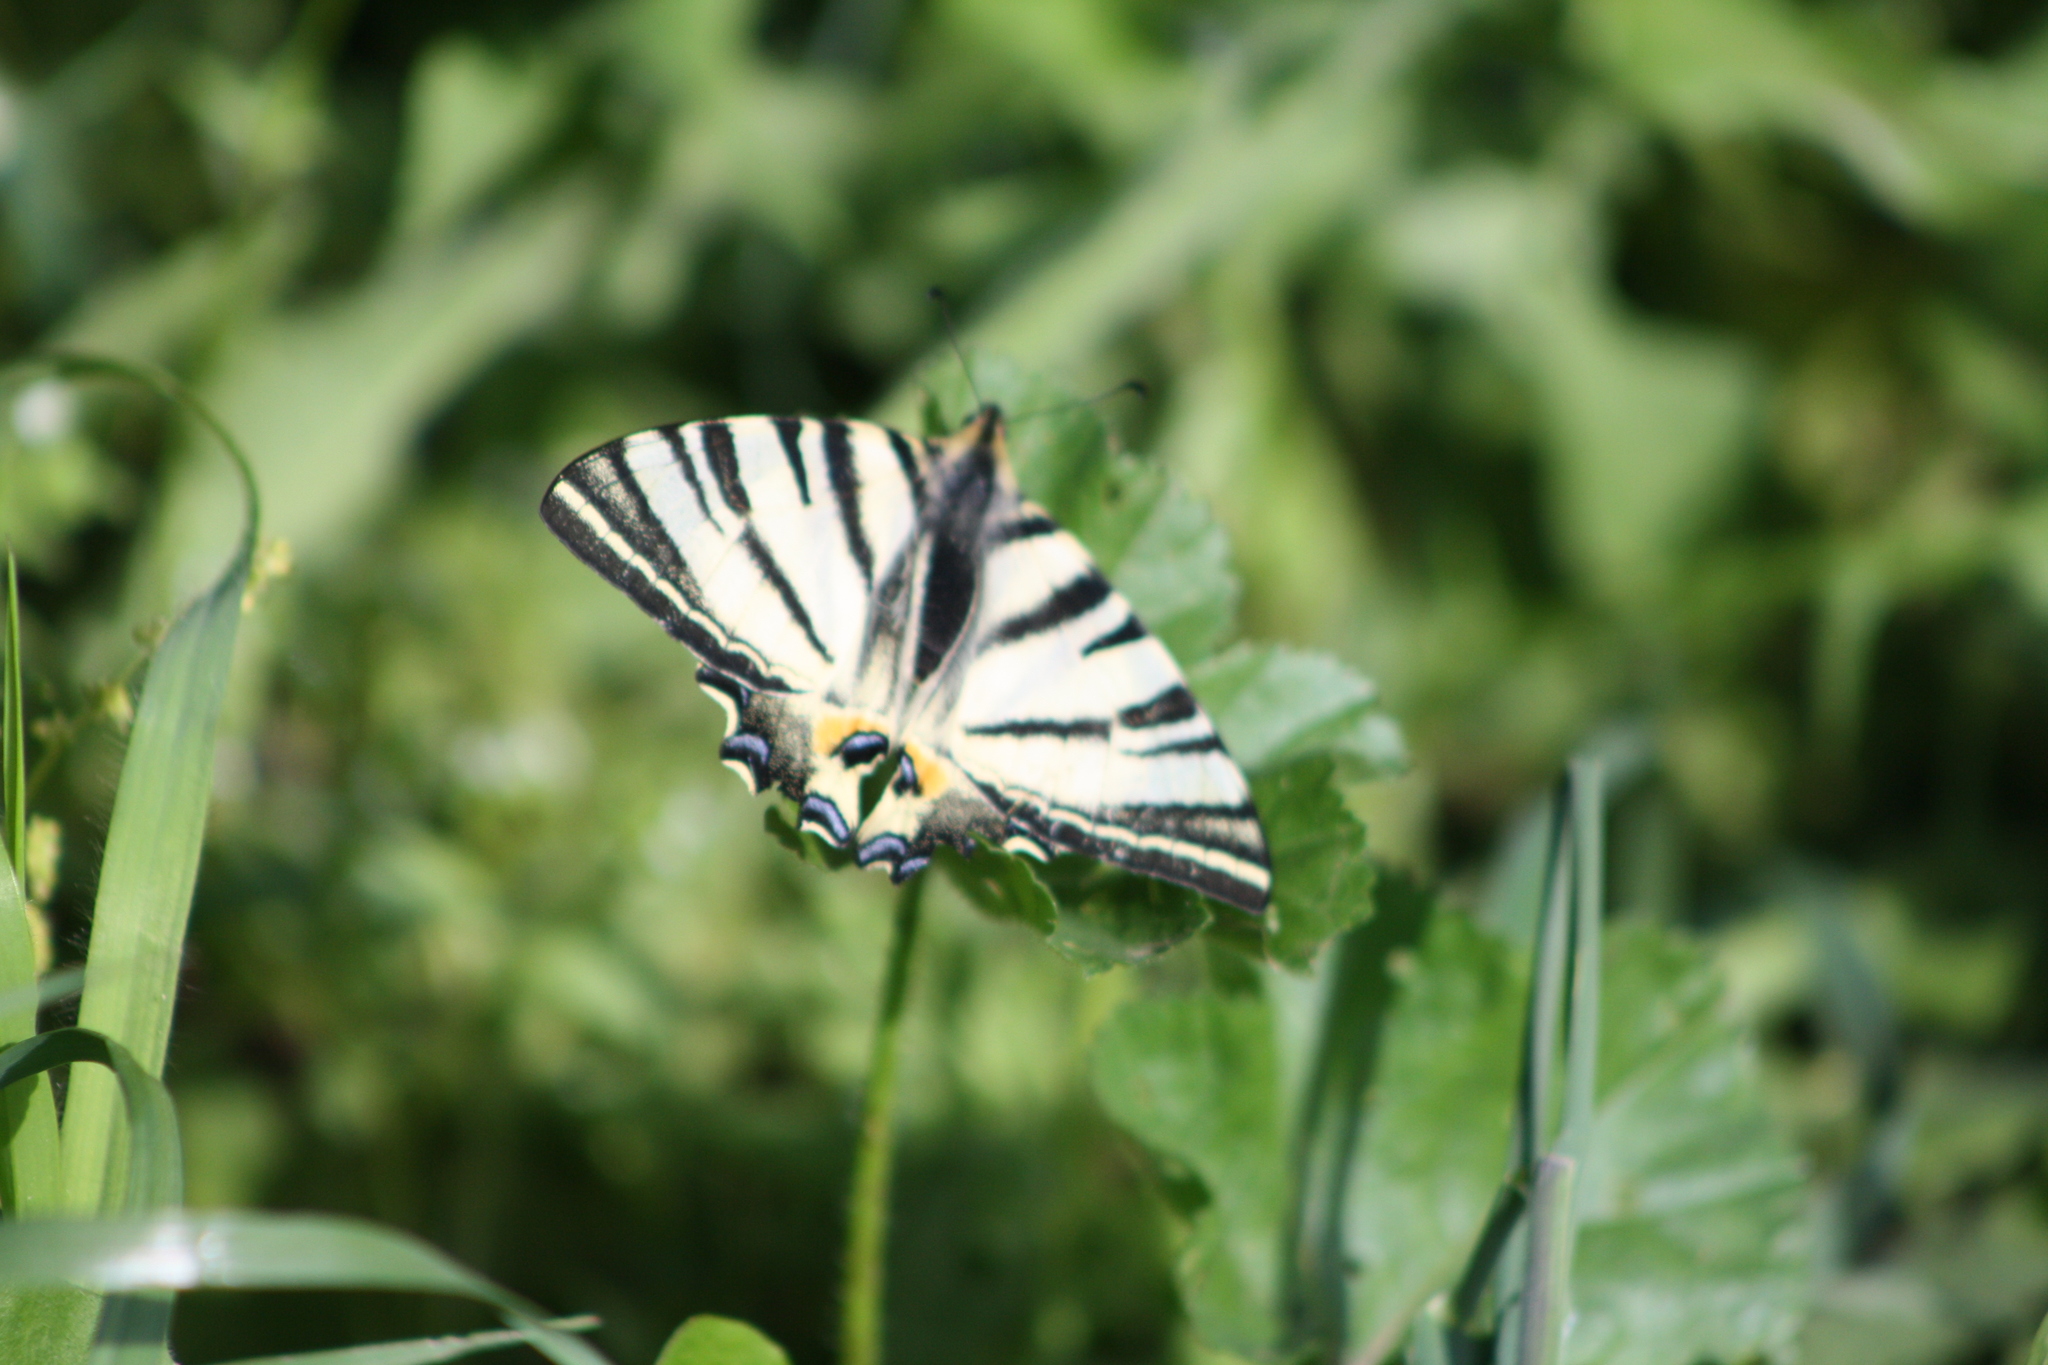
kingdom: Animalia
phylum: Arthropoda
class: Insecta
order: Lepidoptera
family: Papilionidae
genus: Iphiclides
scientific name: Iphiclides podalirius
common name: Scarce swallowtail
